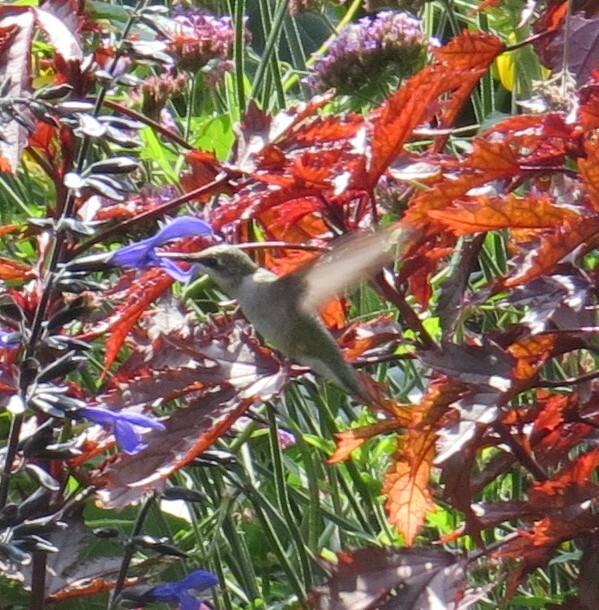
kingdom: Animalia
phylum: Chordata
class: Aves
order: Apodiformes
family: Trochilidae
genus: Archilochus
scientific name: Archilochus colubris
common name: Ruby-throated hummingbird
